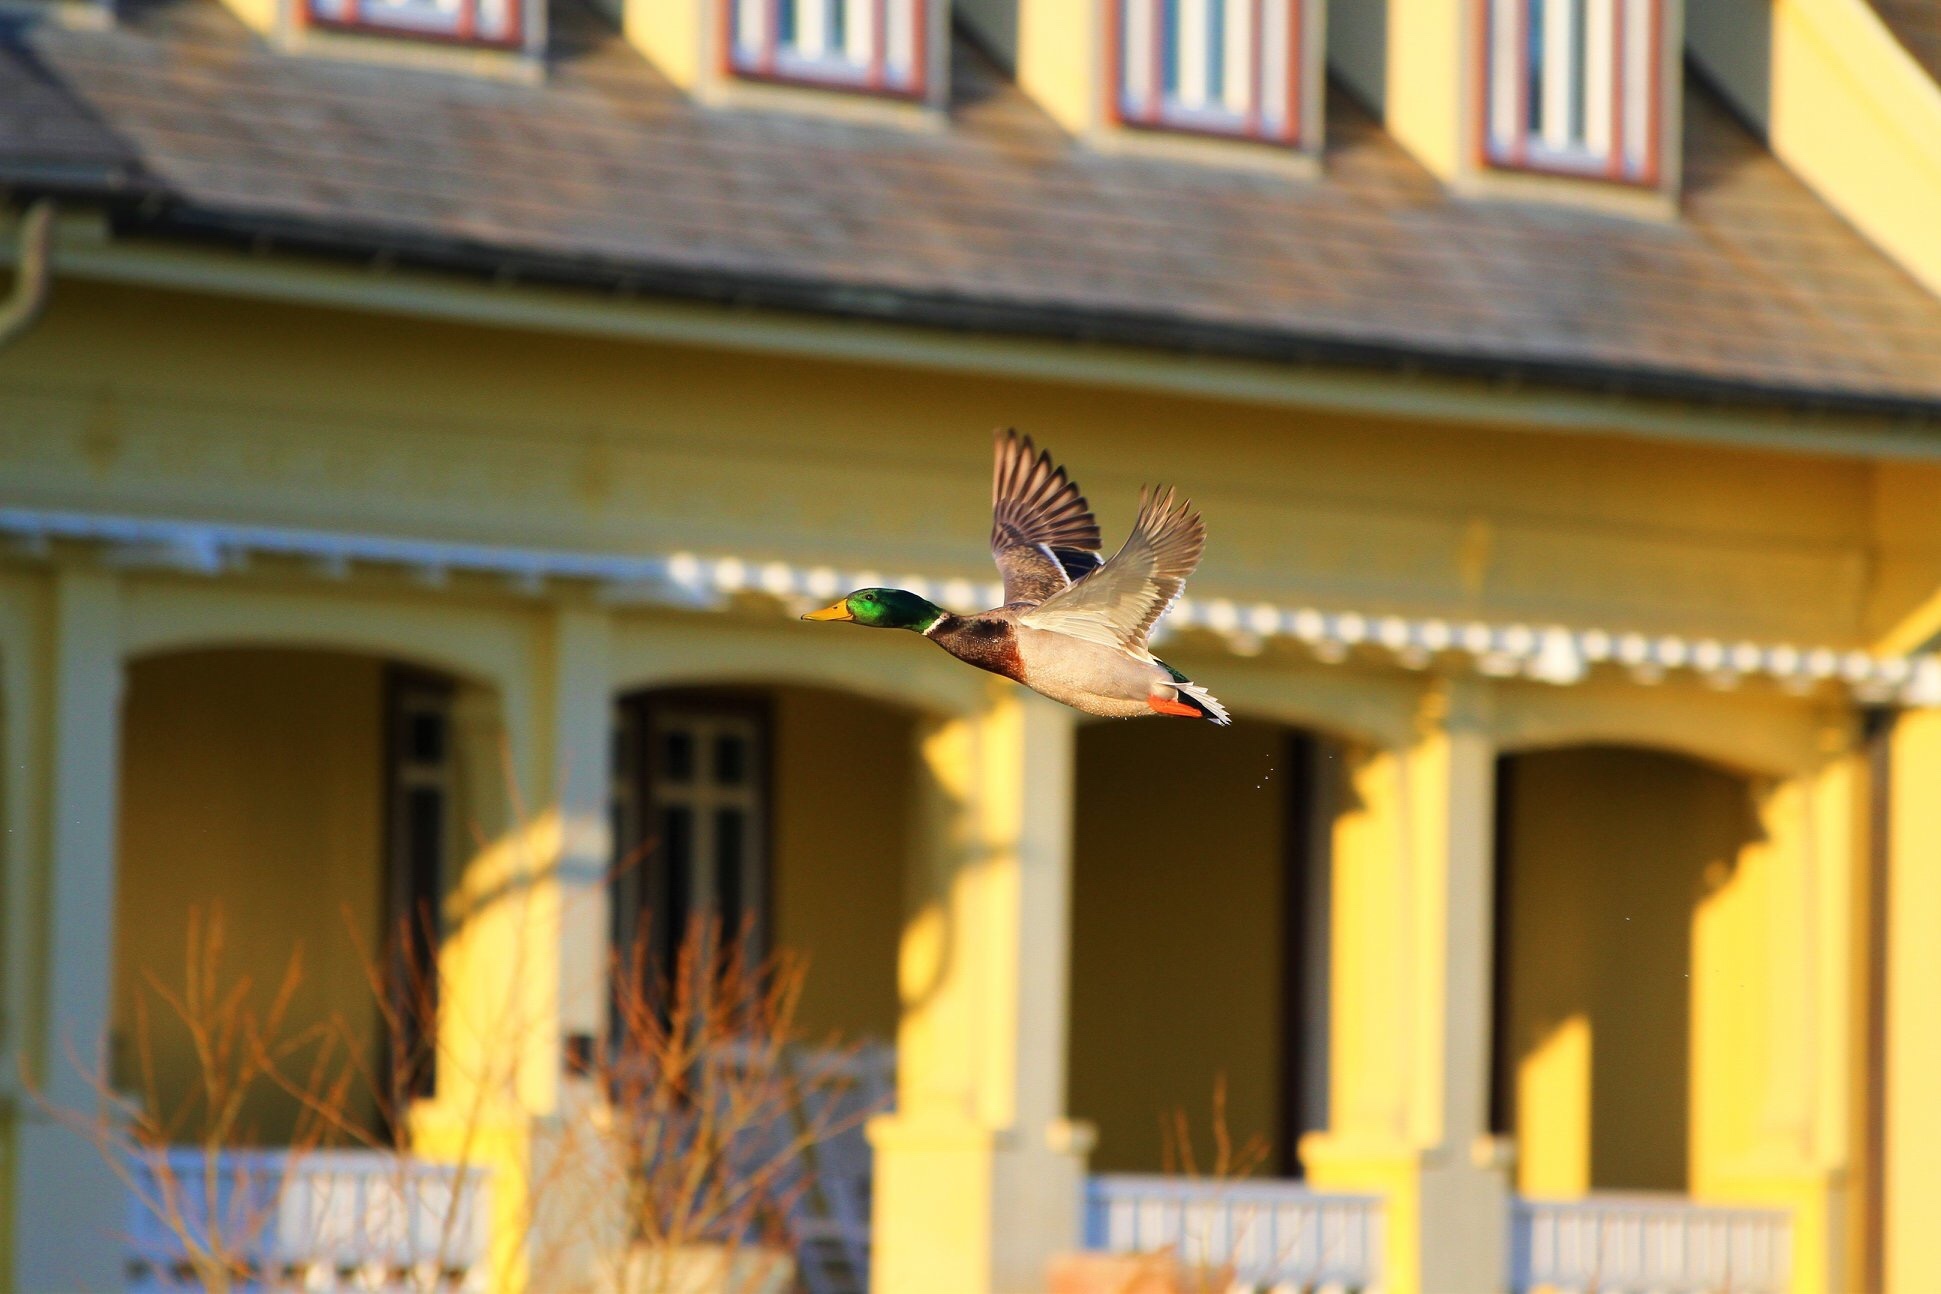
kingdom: Animalia
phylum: Chordata
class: Aves
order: Anseriformes
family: Anatidae
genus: Anas
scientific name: Anas platyrhynchos
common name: Mallard
